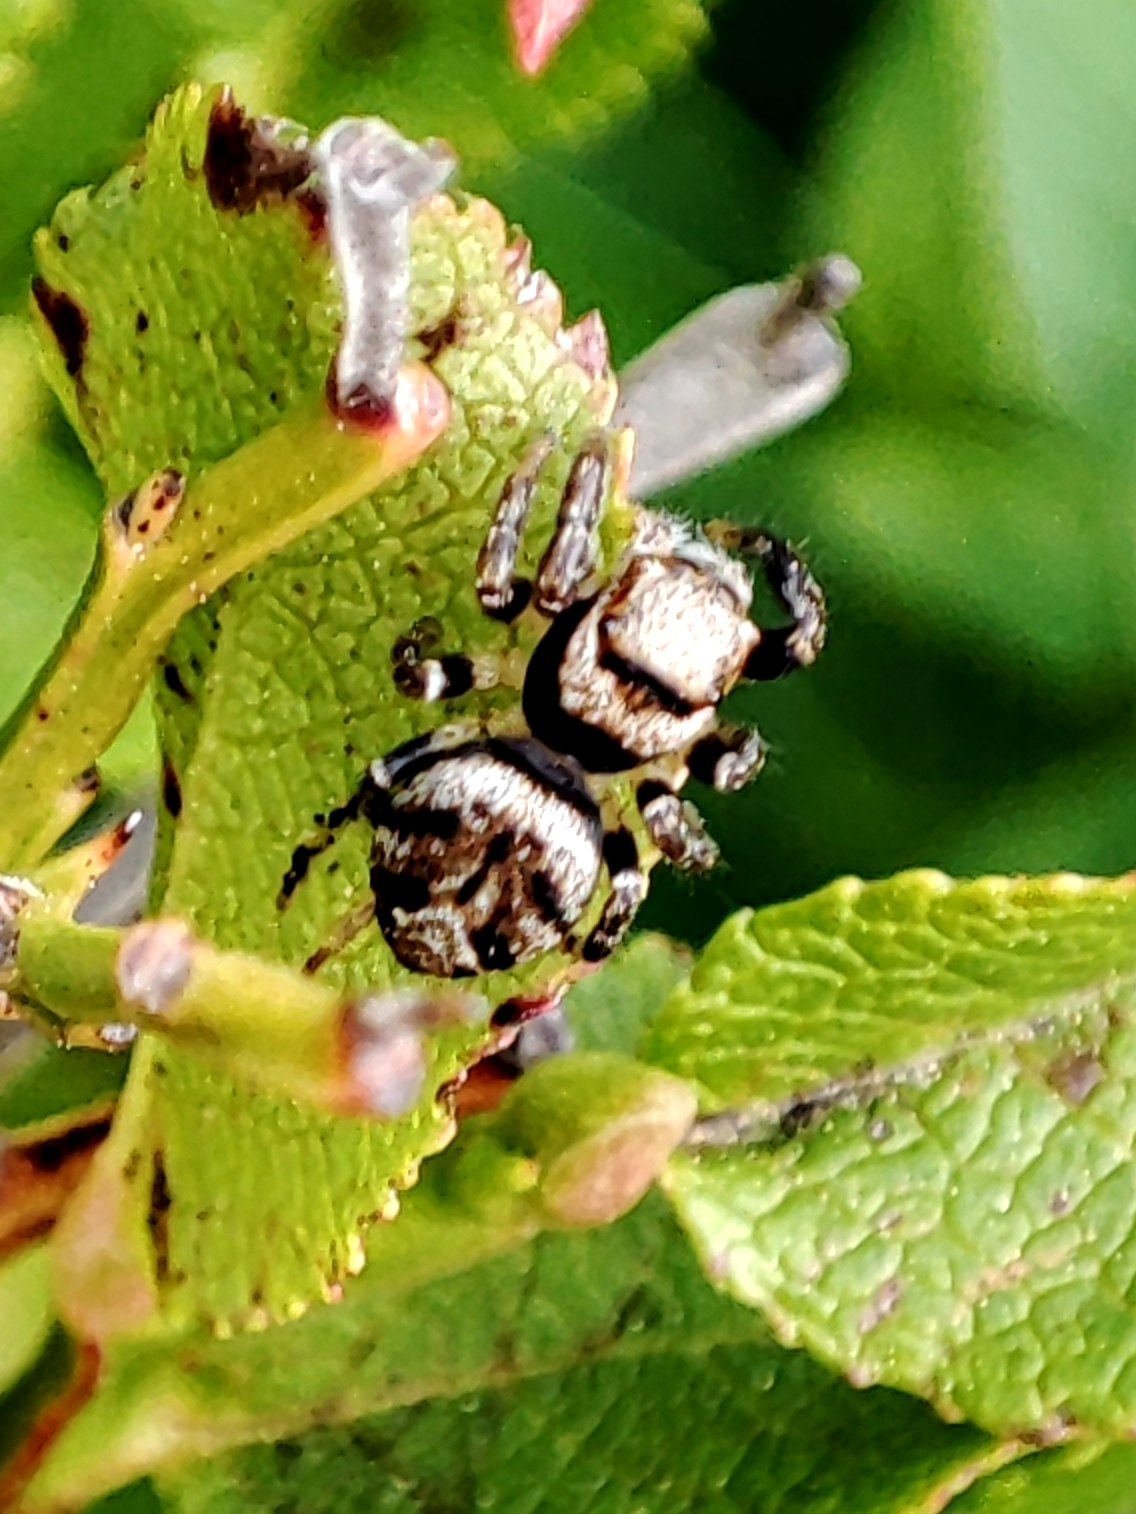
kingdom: Animalia
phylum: Arthropoda
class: Arachnida
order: Araneae
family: Salticidae
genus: Evarcha
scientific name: Evarcha falcata
